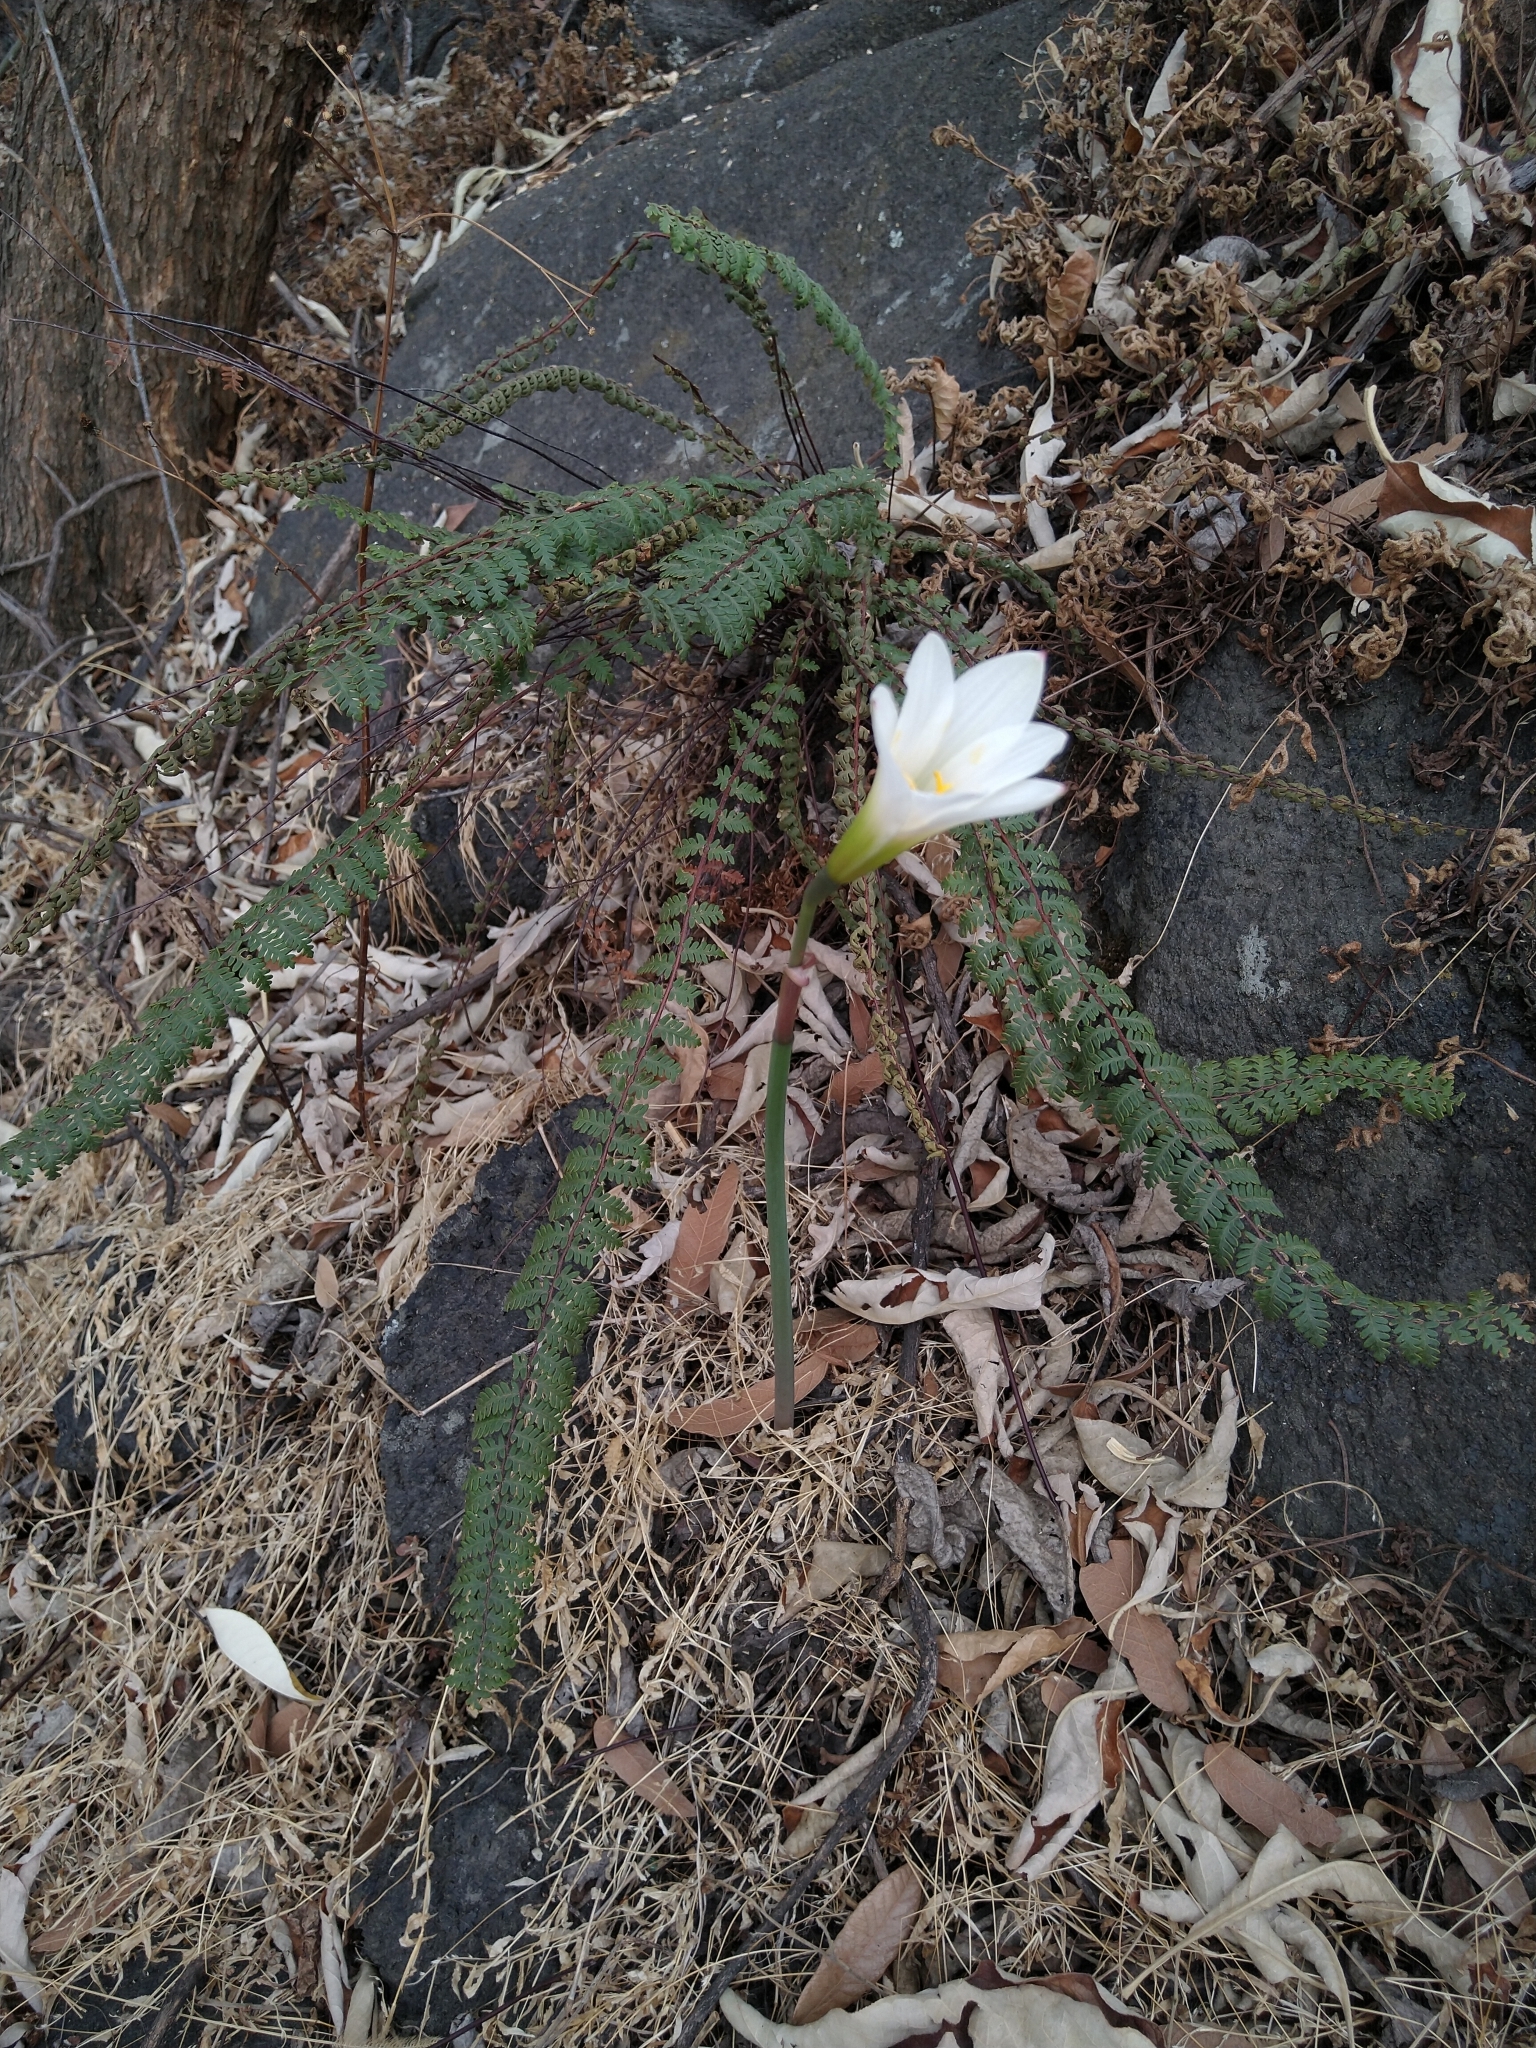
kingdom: Plantae
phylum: Tracheophyta
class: Liliopsida
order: Asparagales
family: Amaryllidaceae
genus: Zephyranthes
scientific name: Zephyranthes alba
